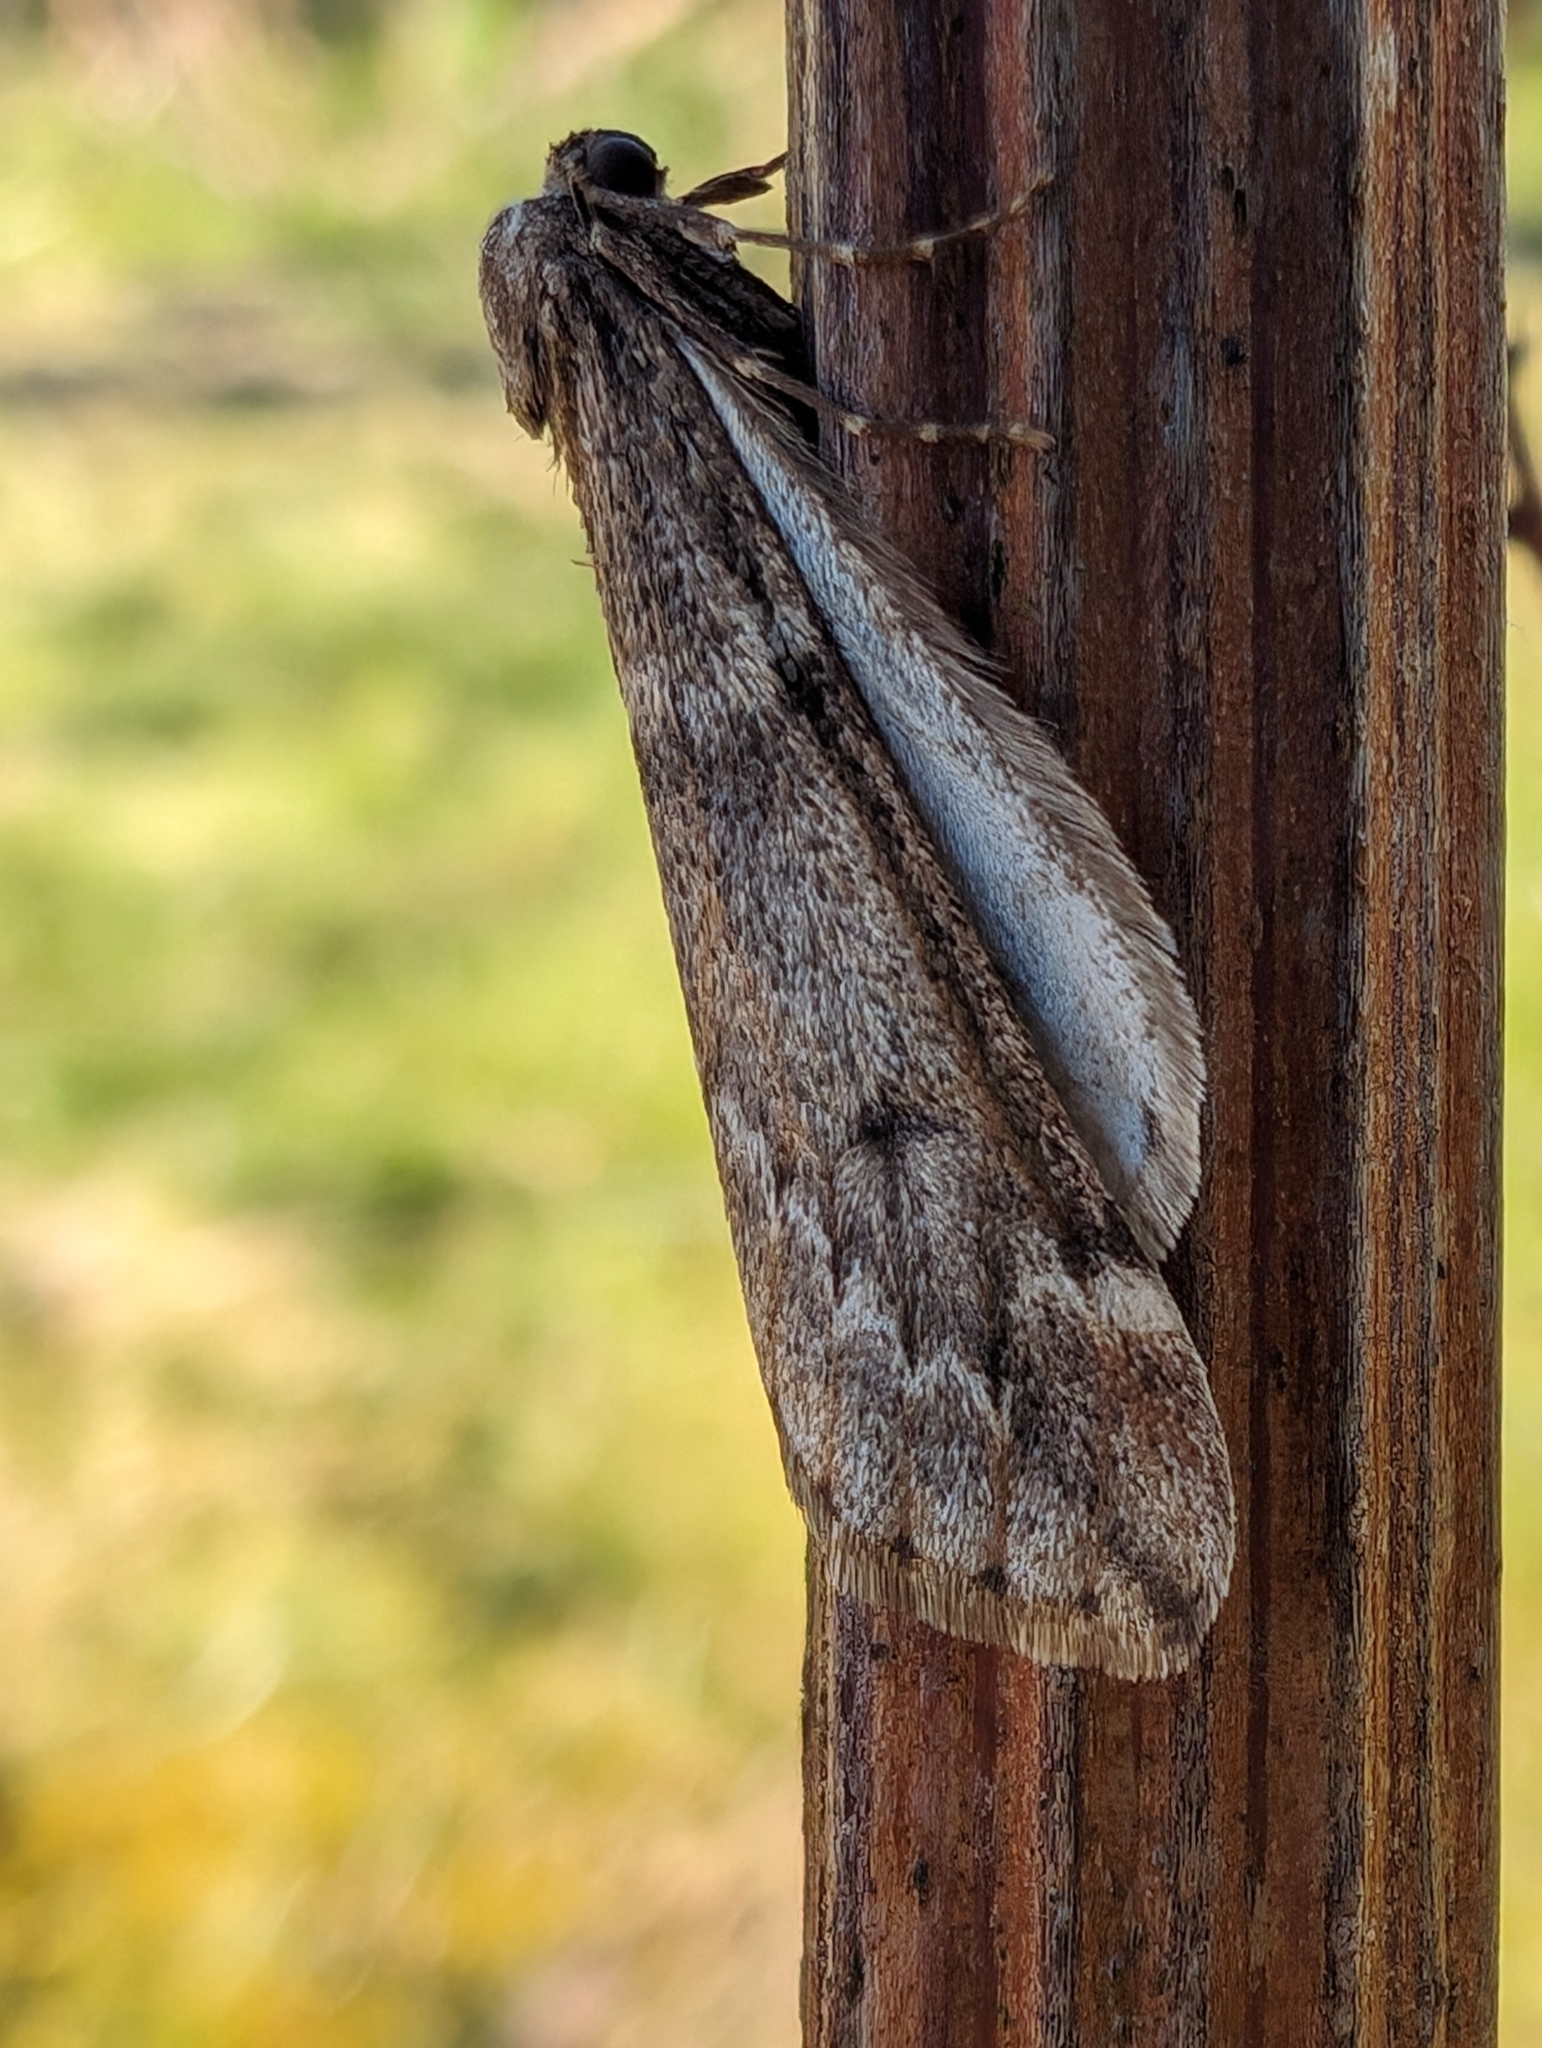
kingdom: Animalia
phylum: Arthropoda
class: Insecta
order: Lepidoptera
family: Geometridae
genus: Alsophila
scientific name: Alsophila aescularia
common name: March moth
